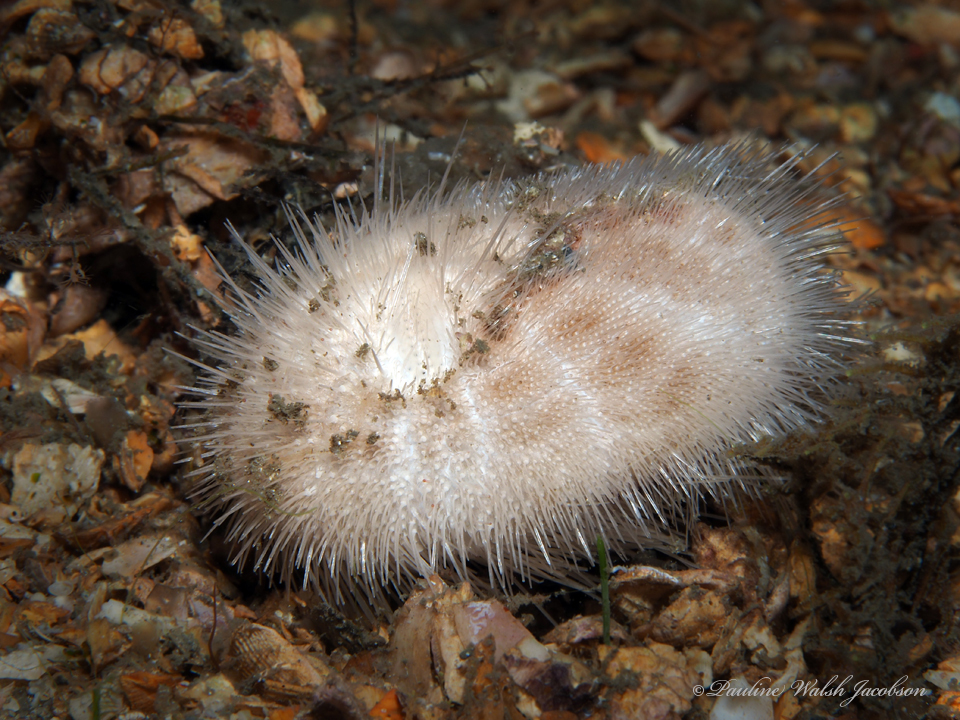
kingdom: Animalia
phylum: Echinodermata
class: Echinoidea
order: Spatangoida
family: Brissidae
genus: Brissus
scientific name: Brissus unicolor
